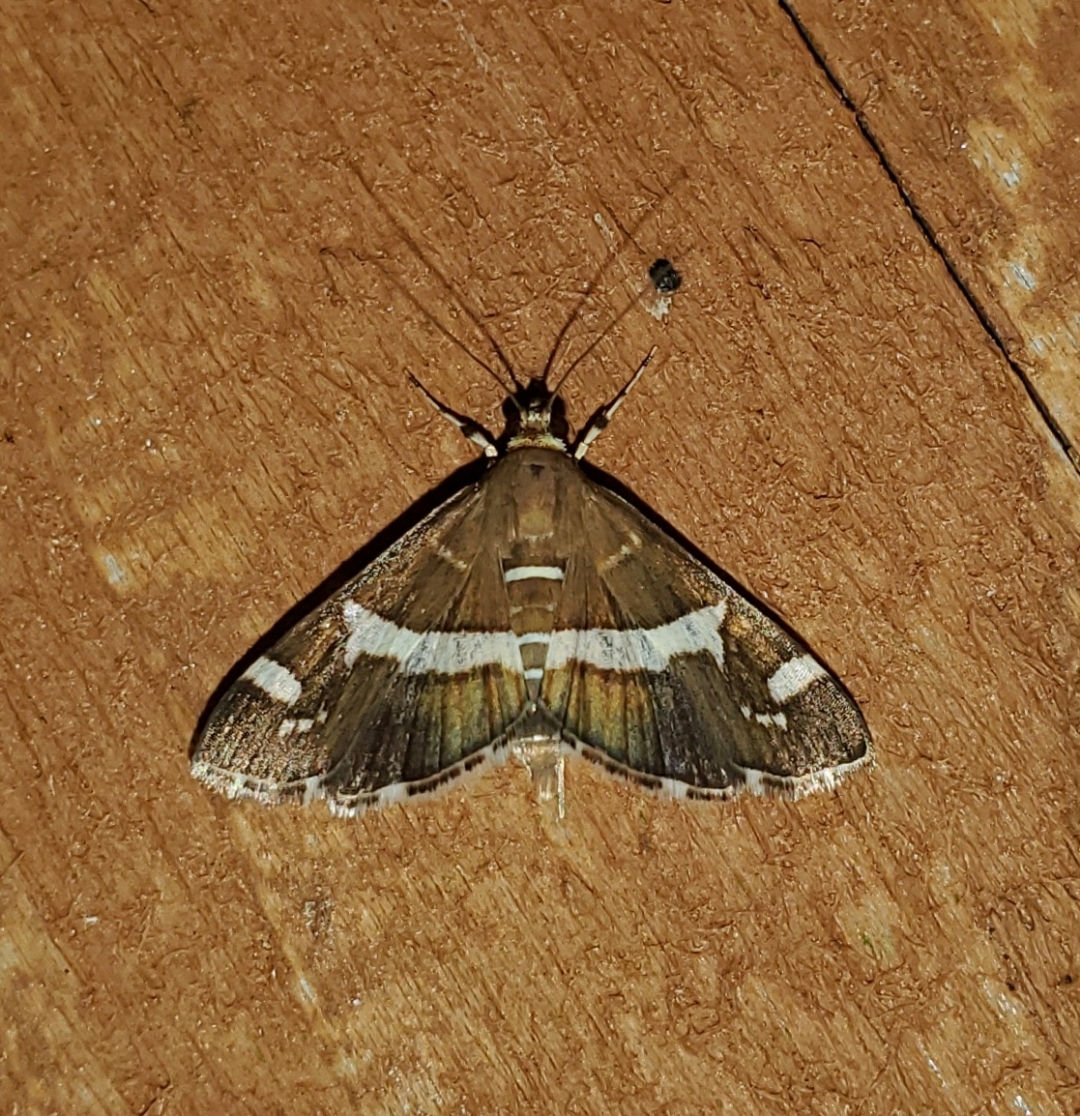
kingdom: Animalia
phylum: Arthropoda
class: Insecta
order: Lepidoptera
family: Crambidae
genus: Spoladea
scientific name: Spoladea recurvalis
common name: Beet webworm moth
